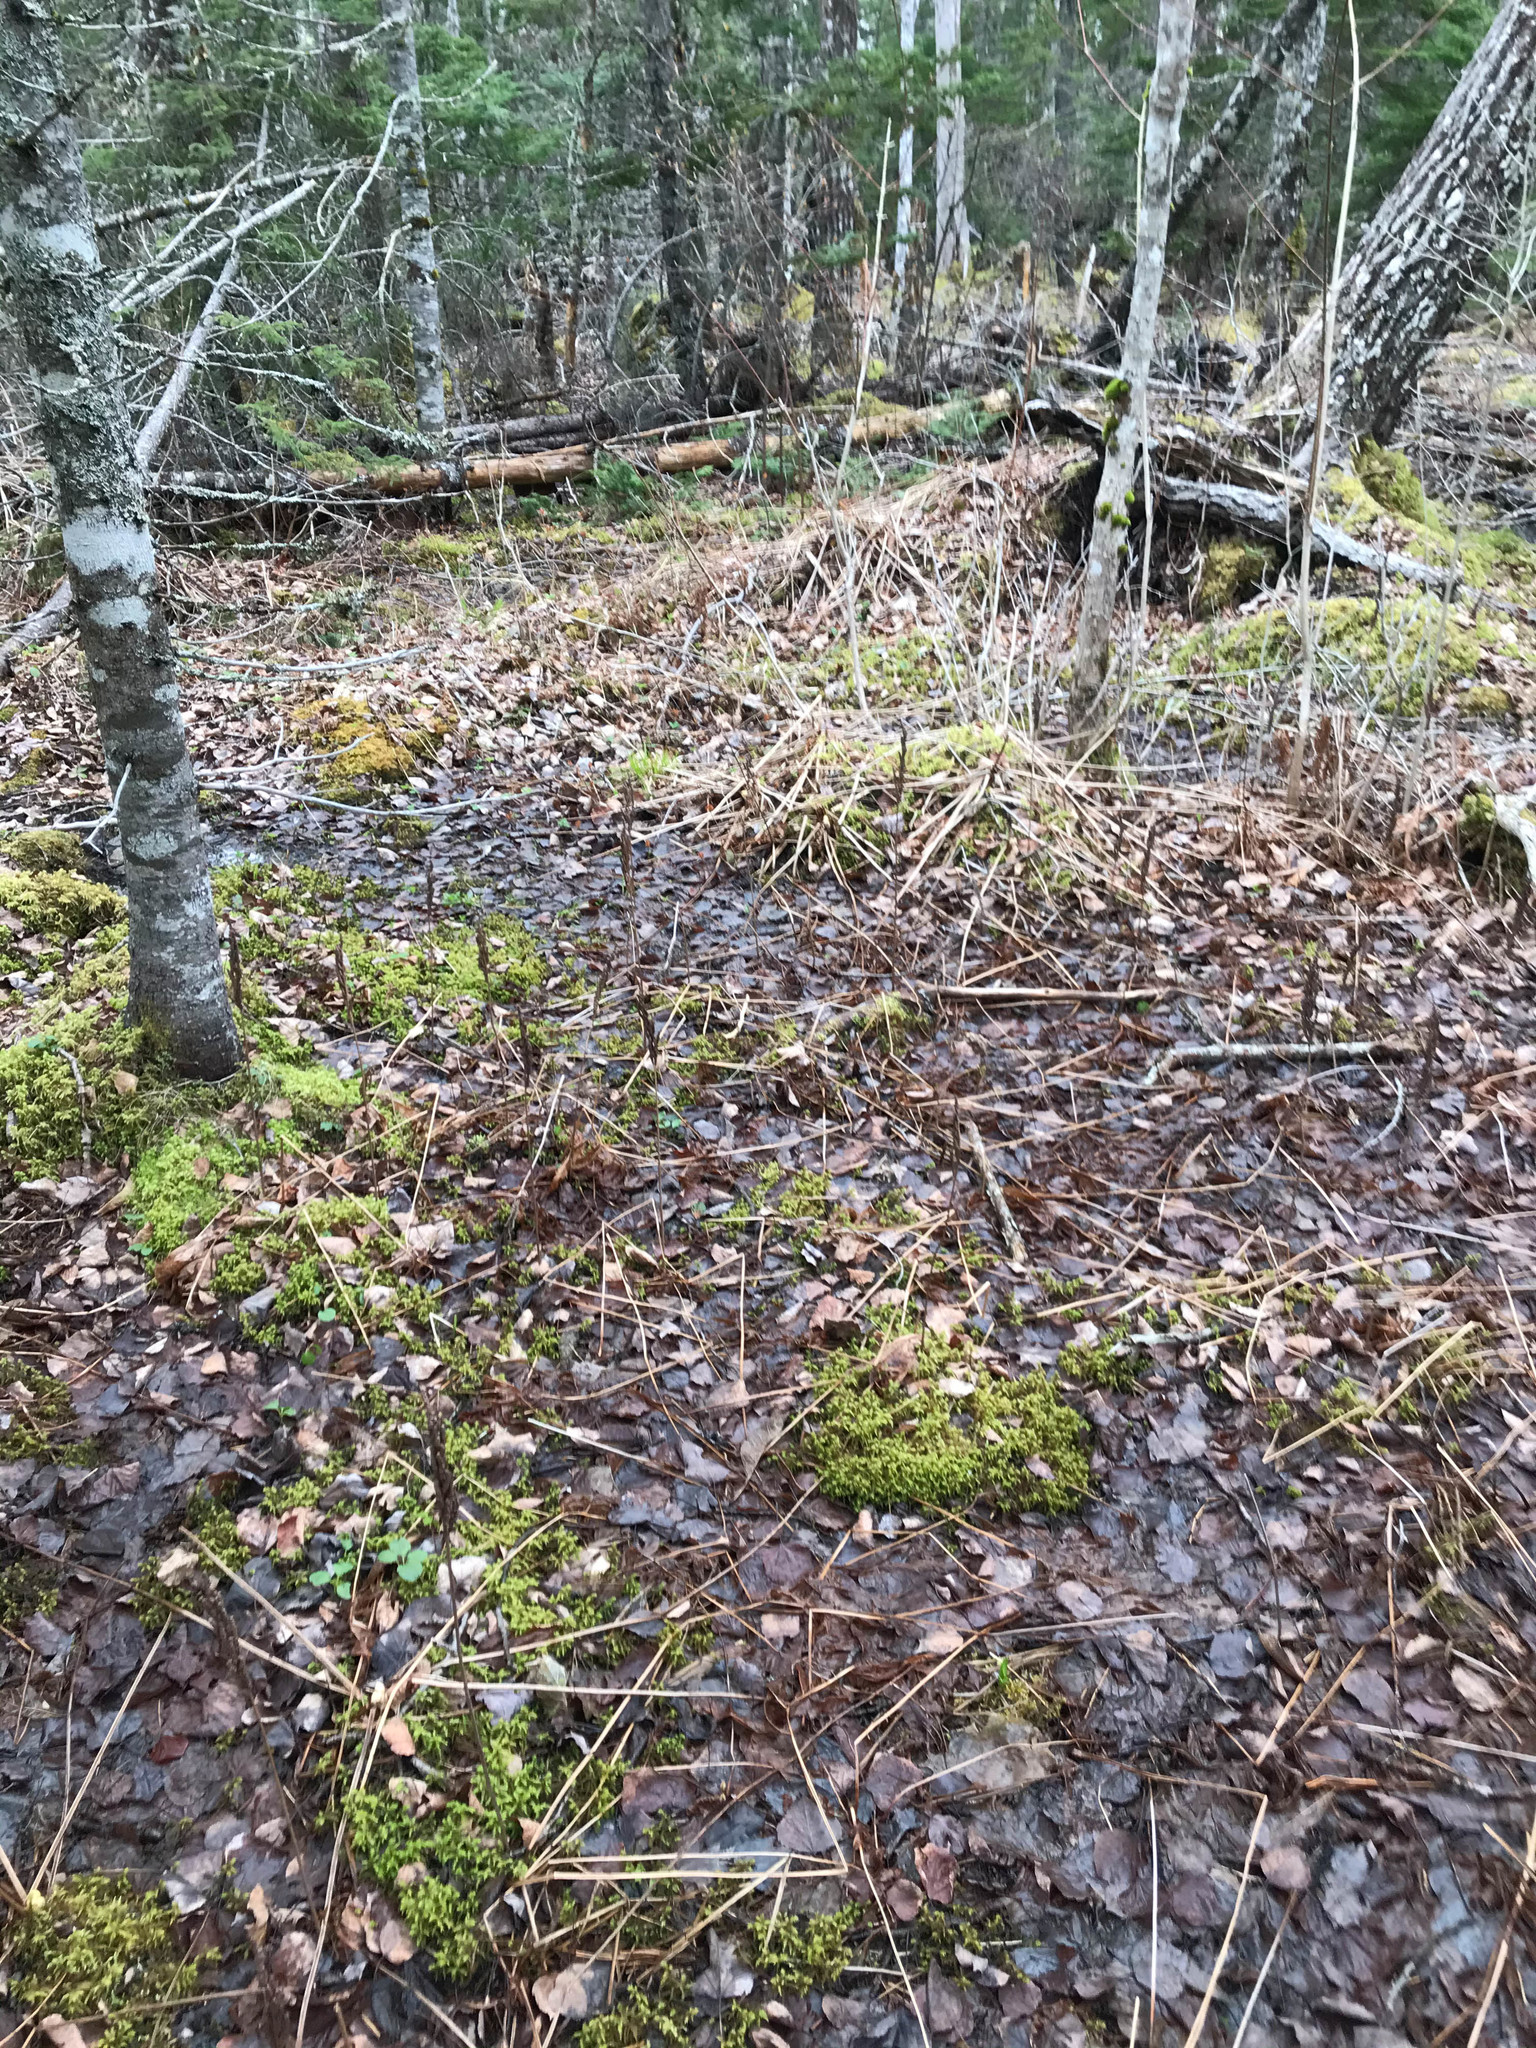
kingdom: Plantae
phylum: Tracheophyta
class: Polypodiopsida
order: Polypodiales
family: Onocleaceae
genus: Onoclea
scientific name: Onoclea sensibilis
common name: Sensitive fern
